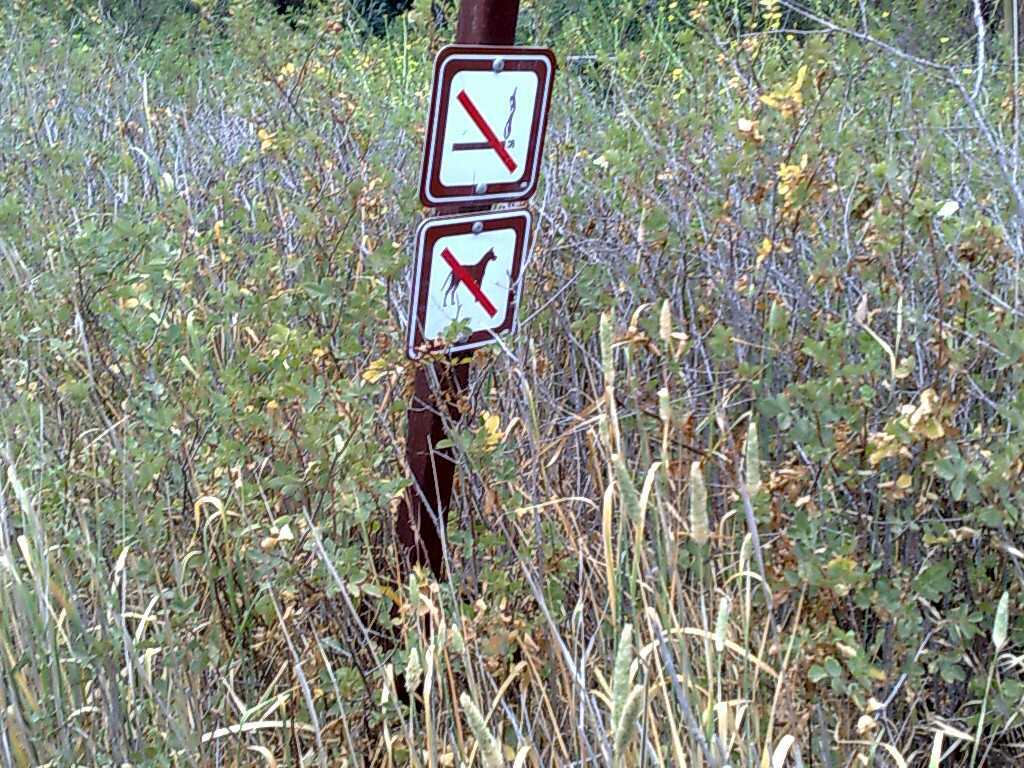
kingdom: Plantae
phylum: Tracheophyta
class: Magnoliopsida
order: Rosales
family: Rosaceae
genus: Rosa
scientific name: Rosa californica
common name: California rose
